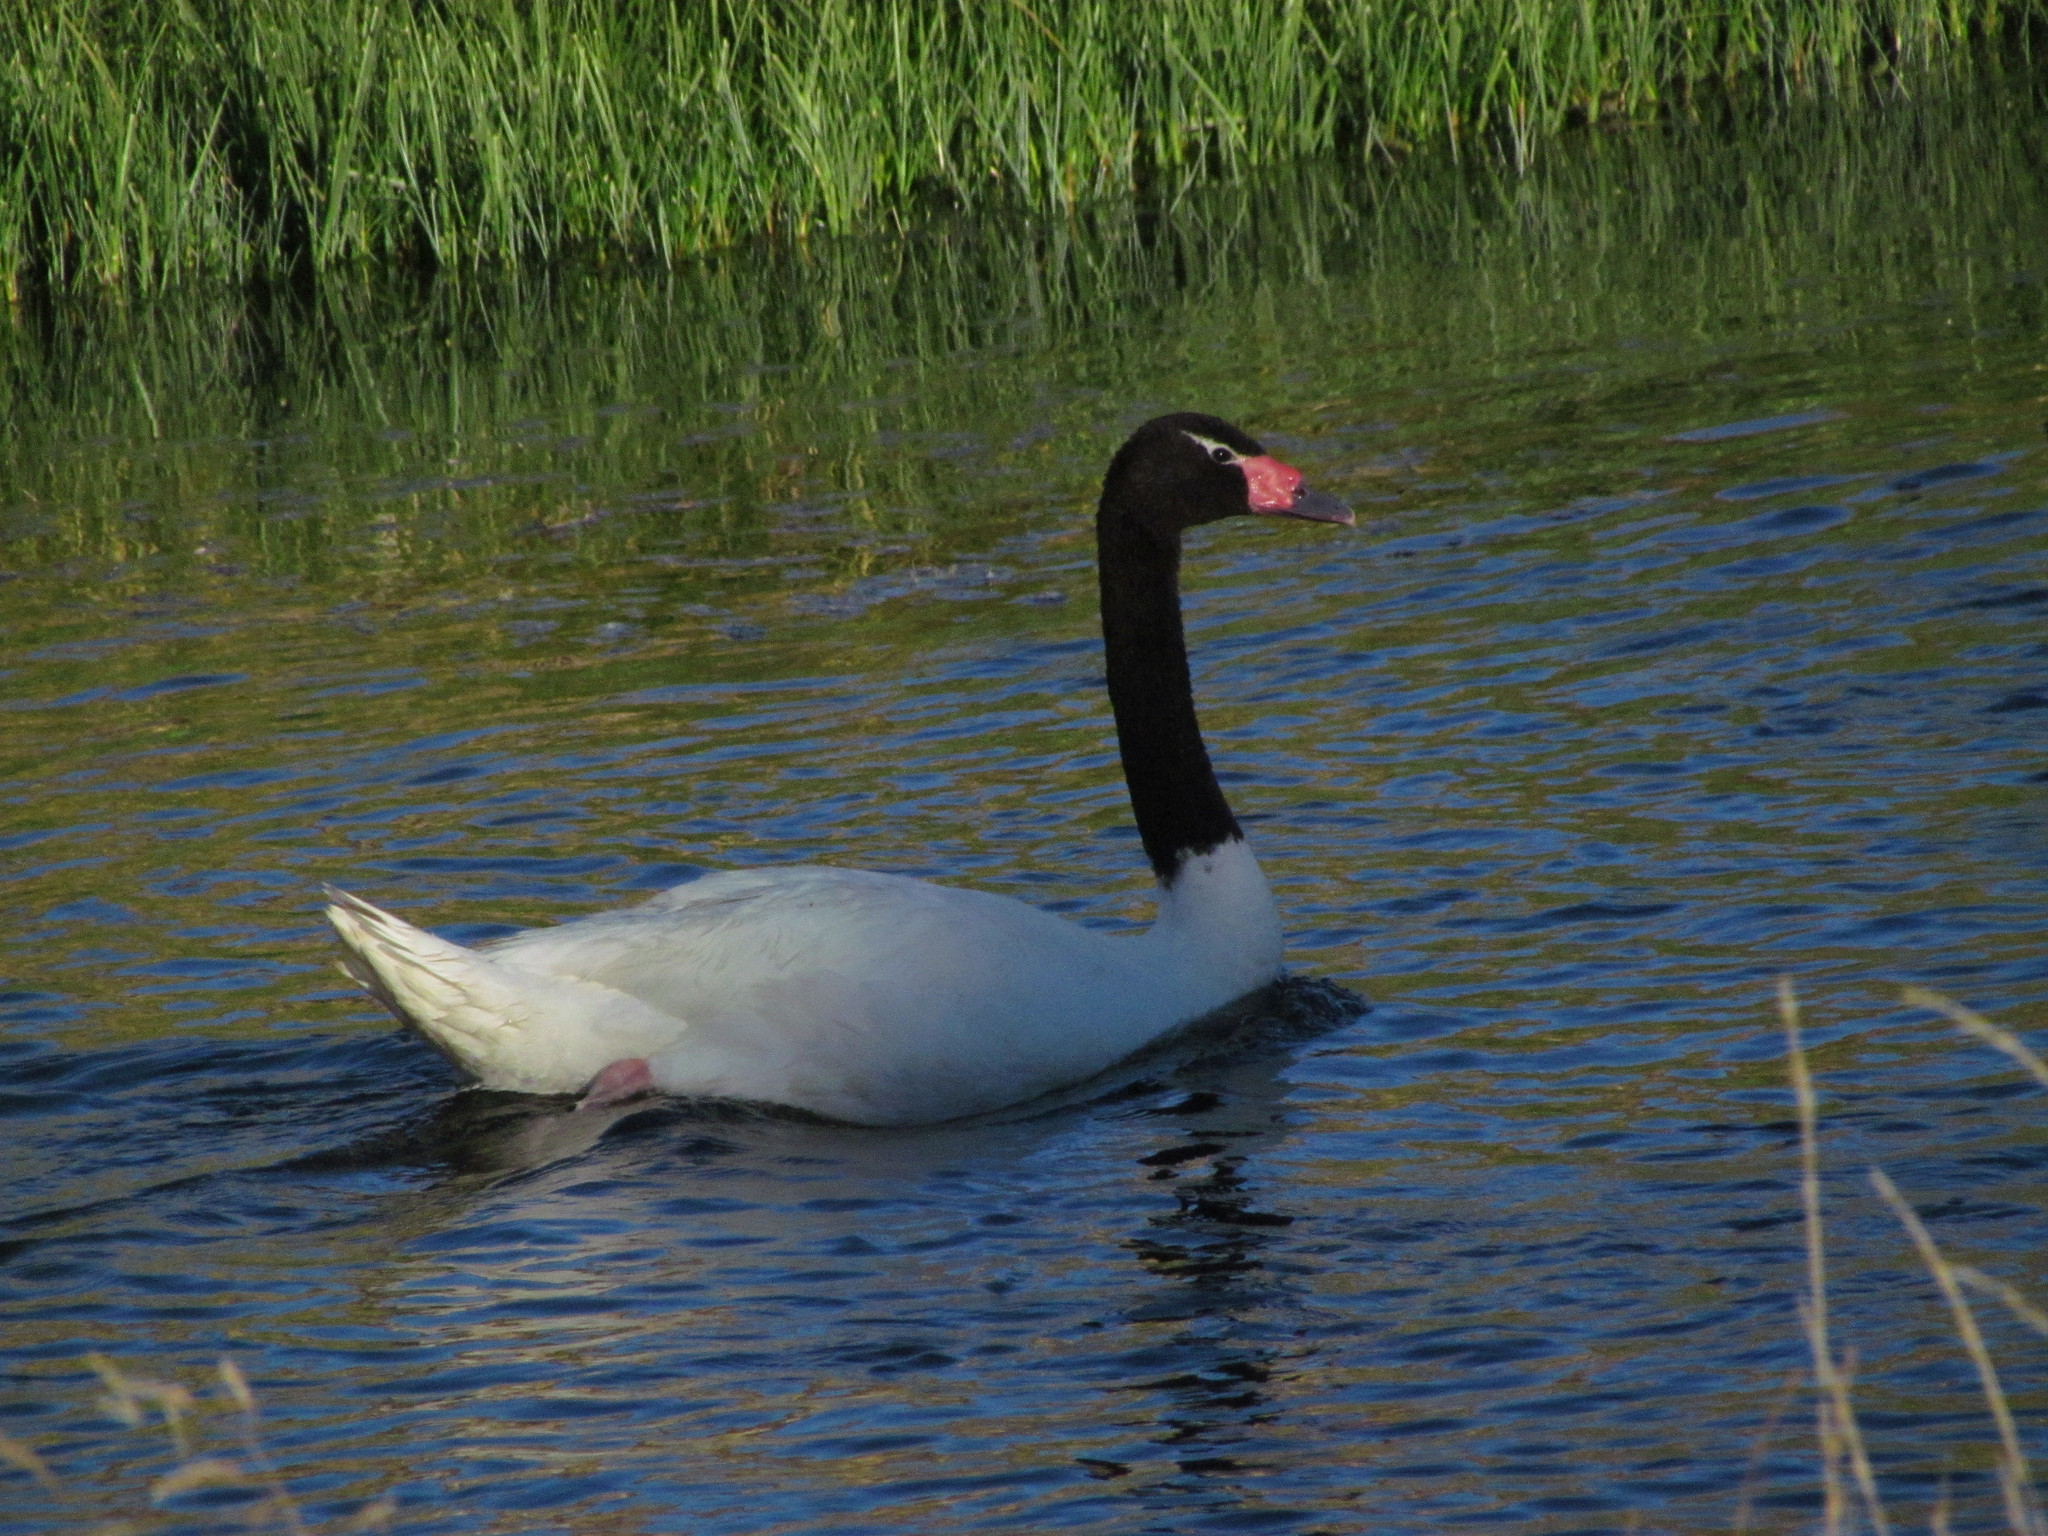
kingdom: Animalia
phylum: Chordata
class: Aves
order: Anseriformes
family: Anatidae
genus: Cygnus
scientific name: Cygnus melancoryphus
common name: Black-necked swan
